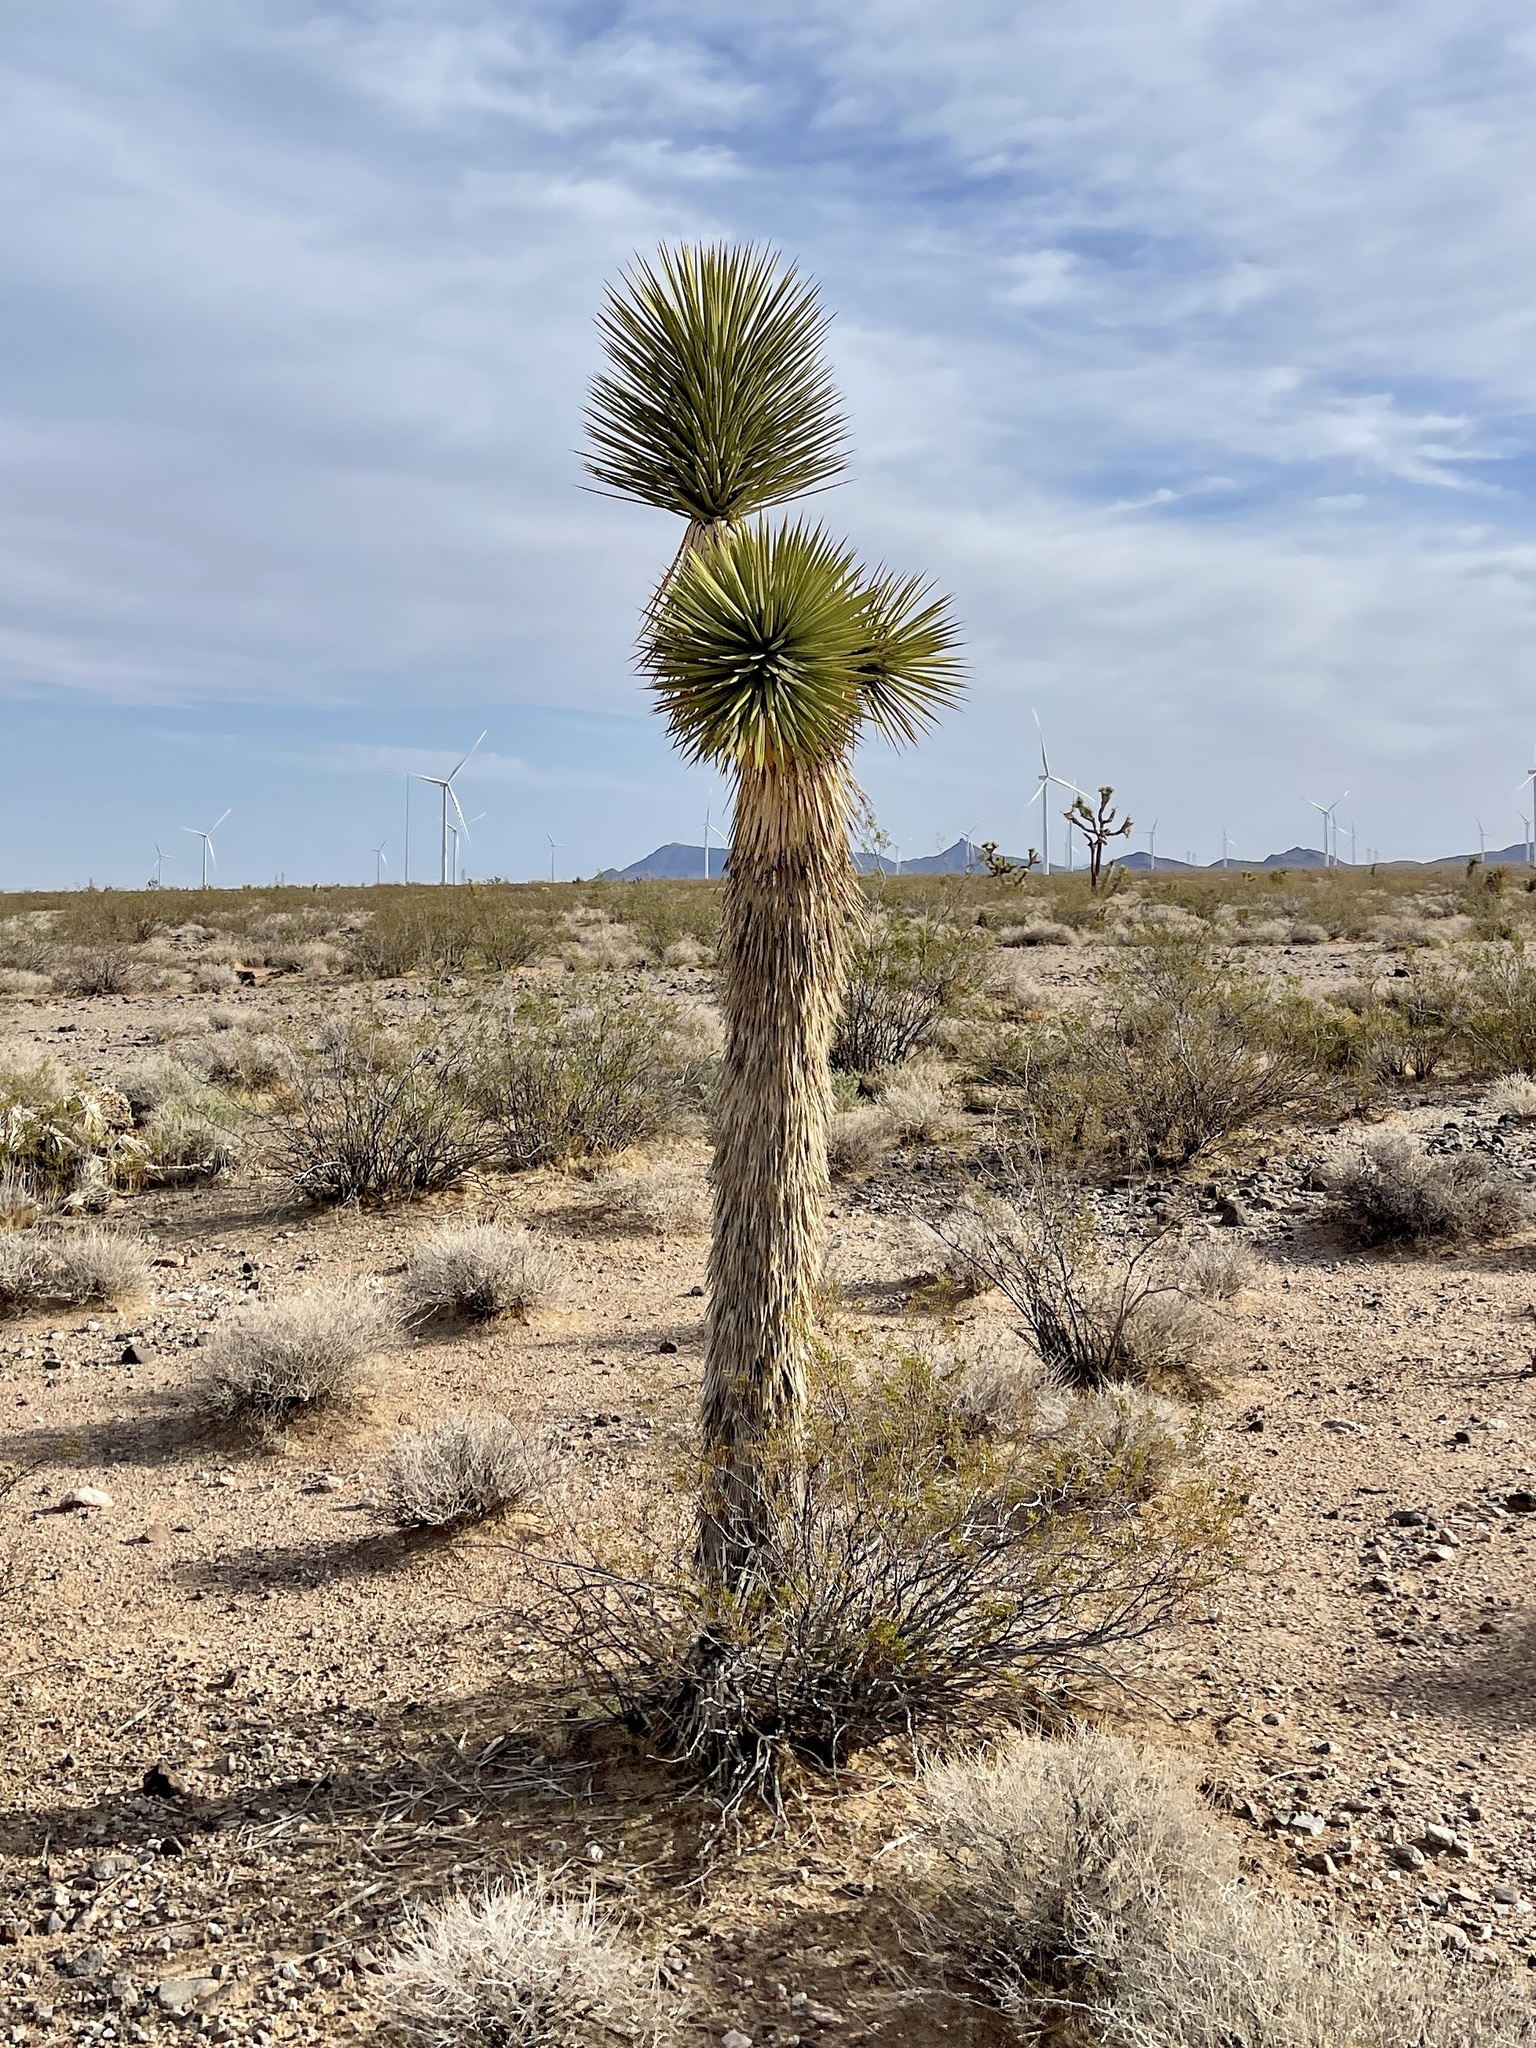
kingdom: Plantae
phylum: Tracheophyta
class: Liliopsida
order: Asparagales
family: Asparagaceae
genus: Yucca
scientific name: Yucca brevifolia
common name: Joshua tree
